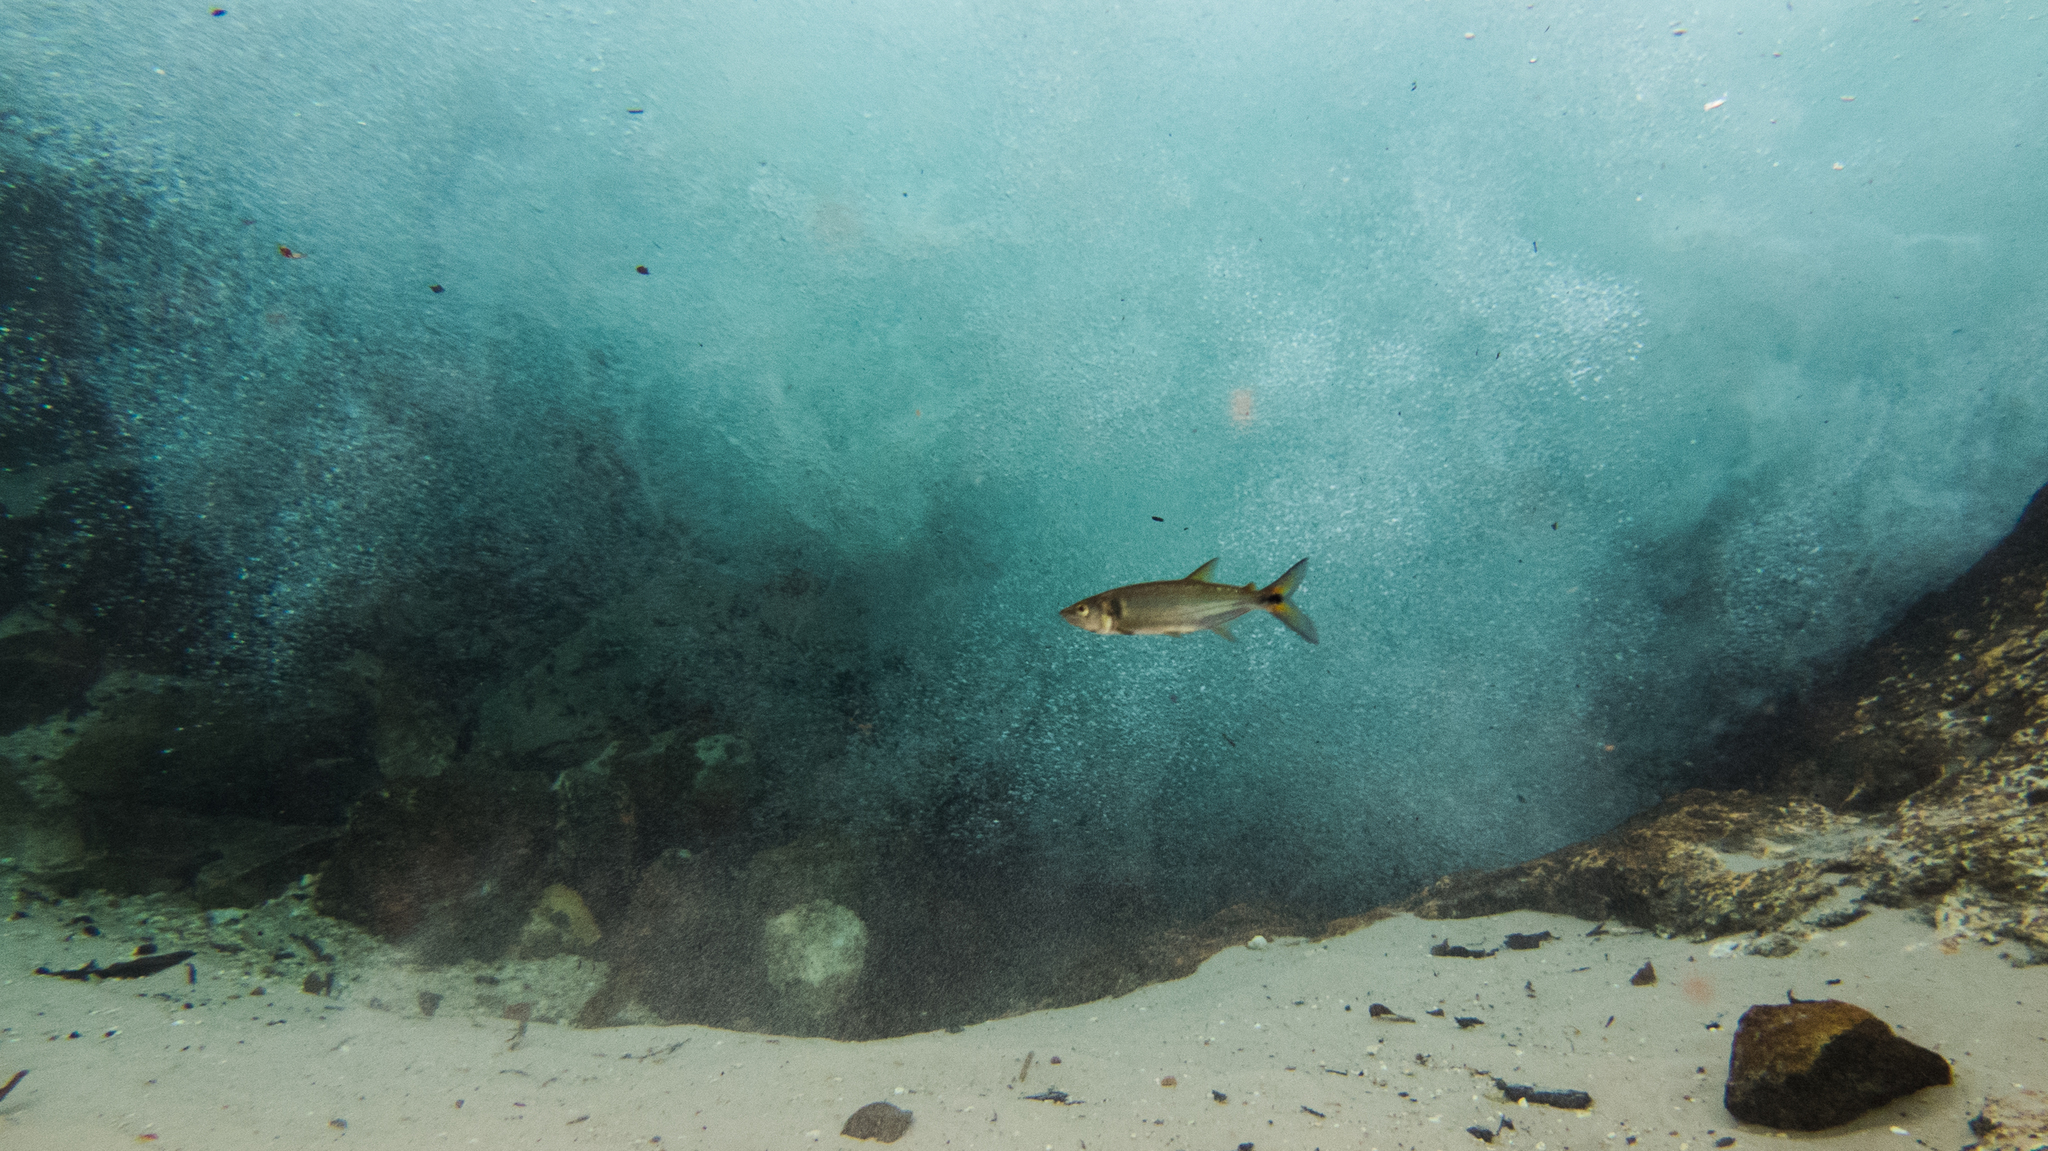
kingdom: Animalia
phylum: Chordata
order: Characiformes
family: Acestrorhynchidae
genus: Acestrorhynchus
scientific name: Acestrorhynchus falcatus
